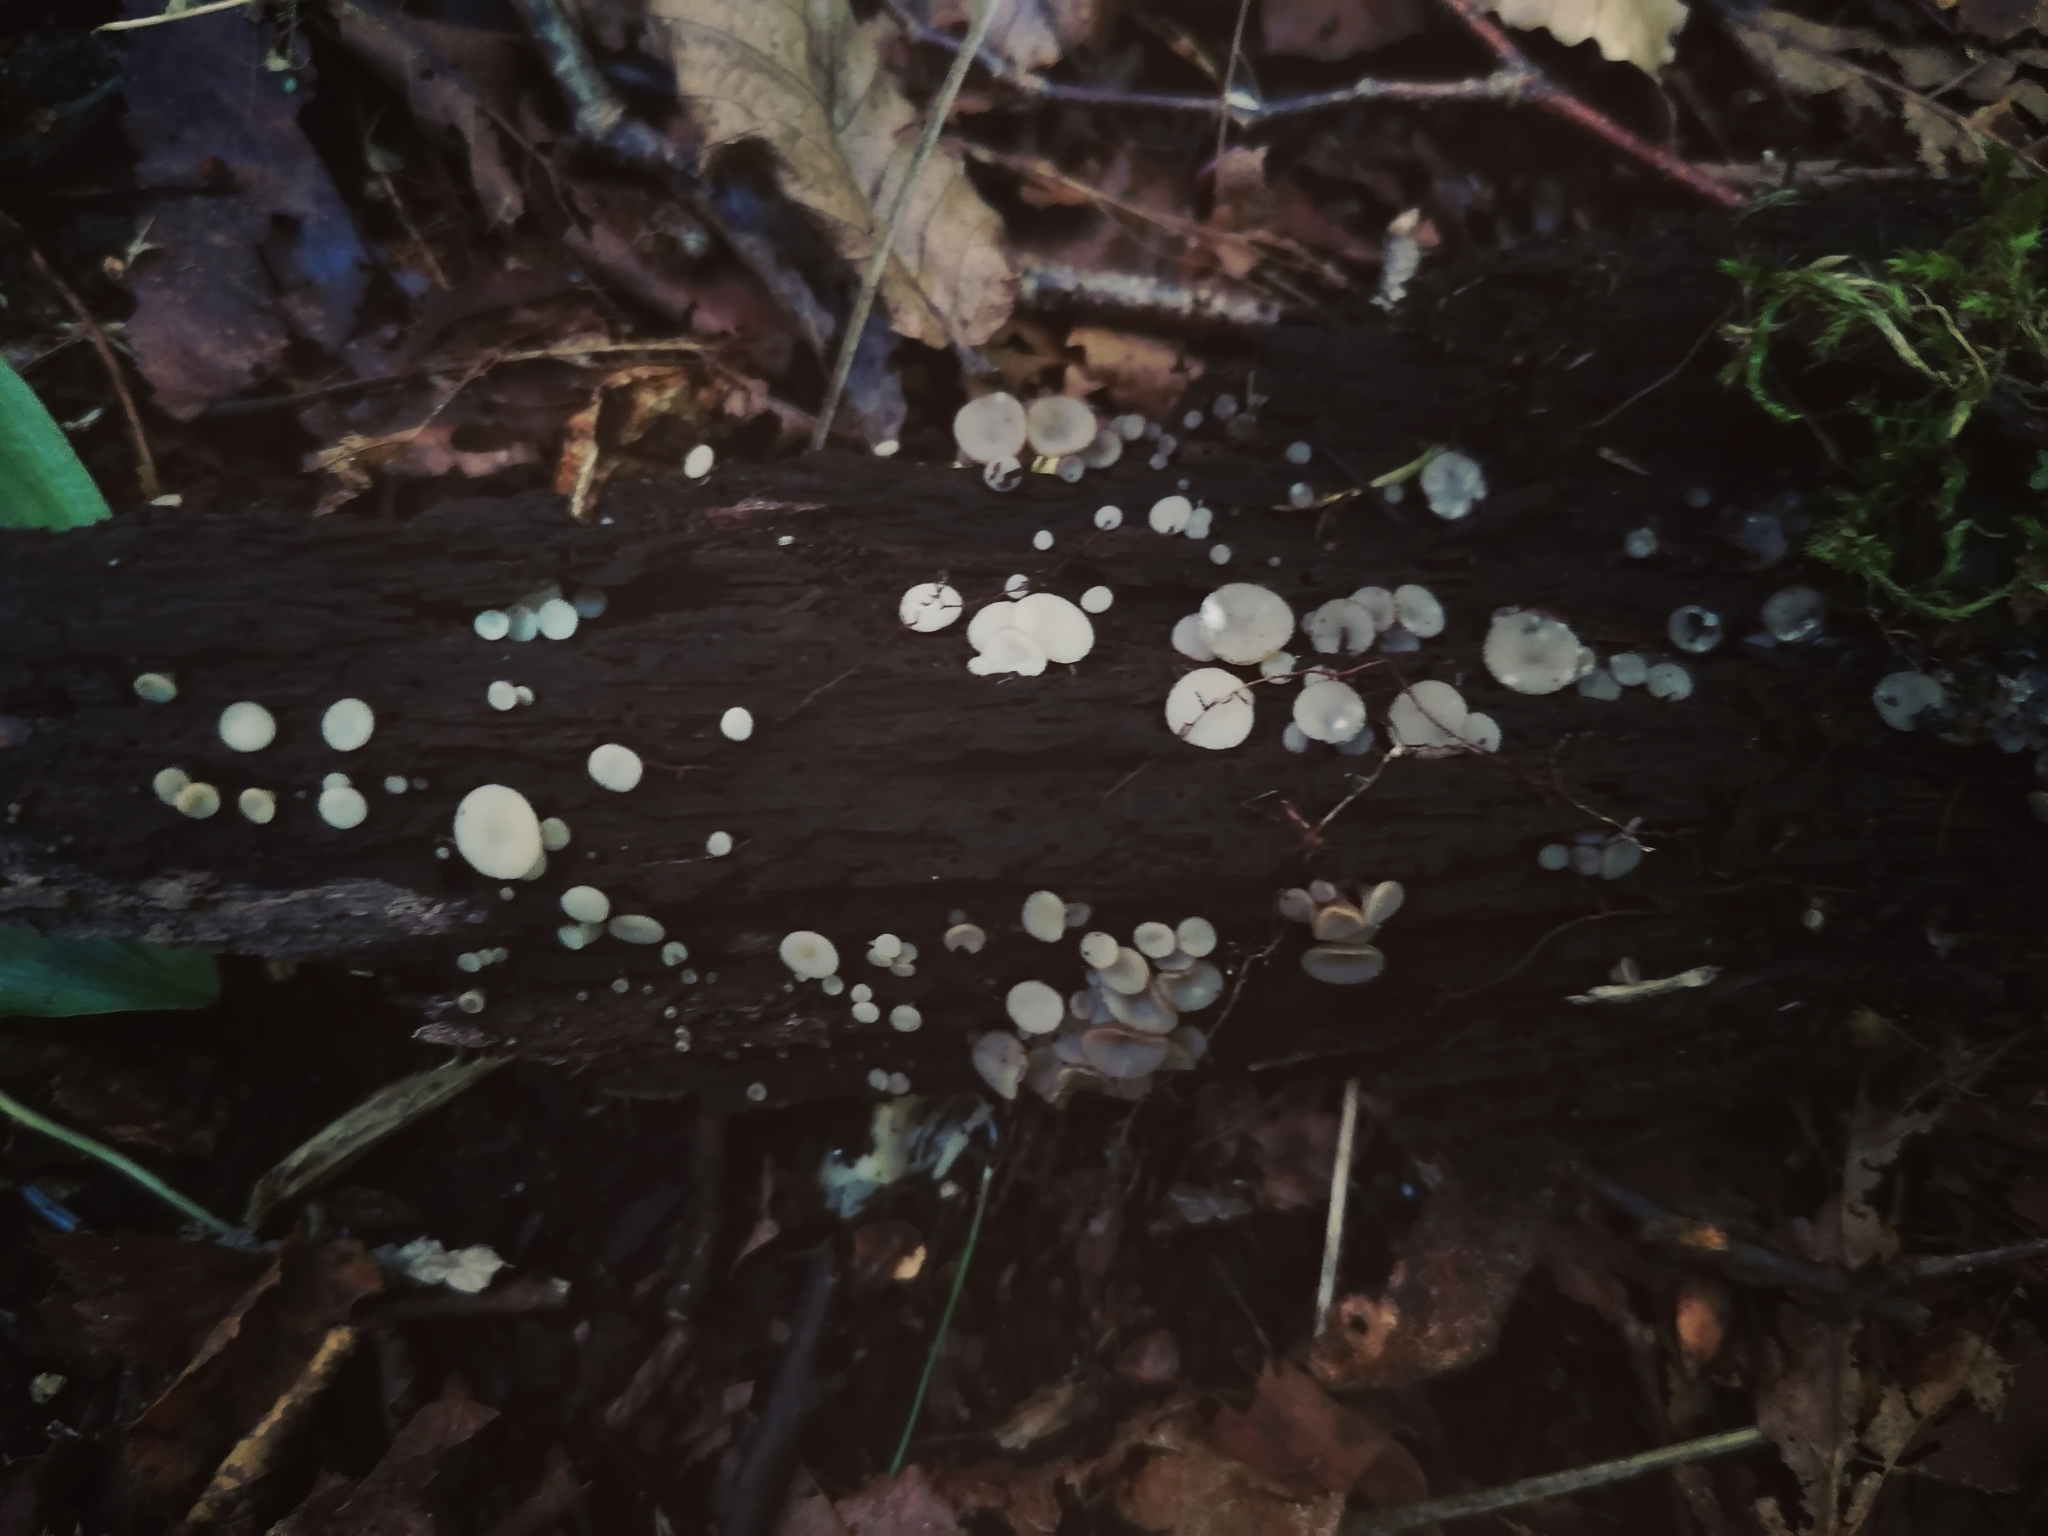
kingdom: Fungi
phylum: Ascomycota
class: Leotiomycetes
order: Helotiales
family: Helotiaceae
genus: Tatraea
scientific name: Tatraea macrospora
